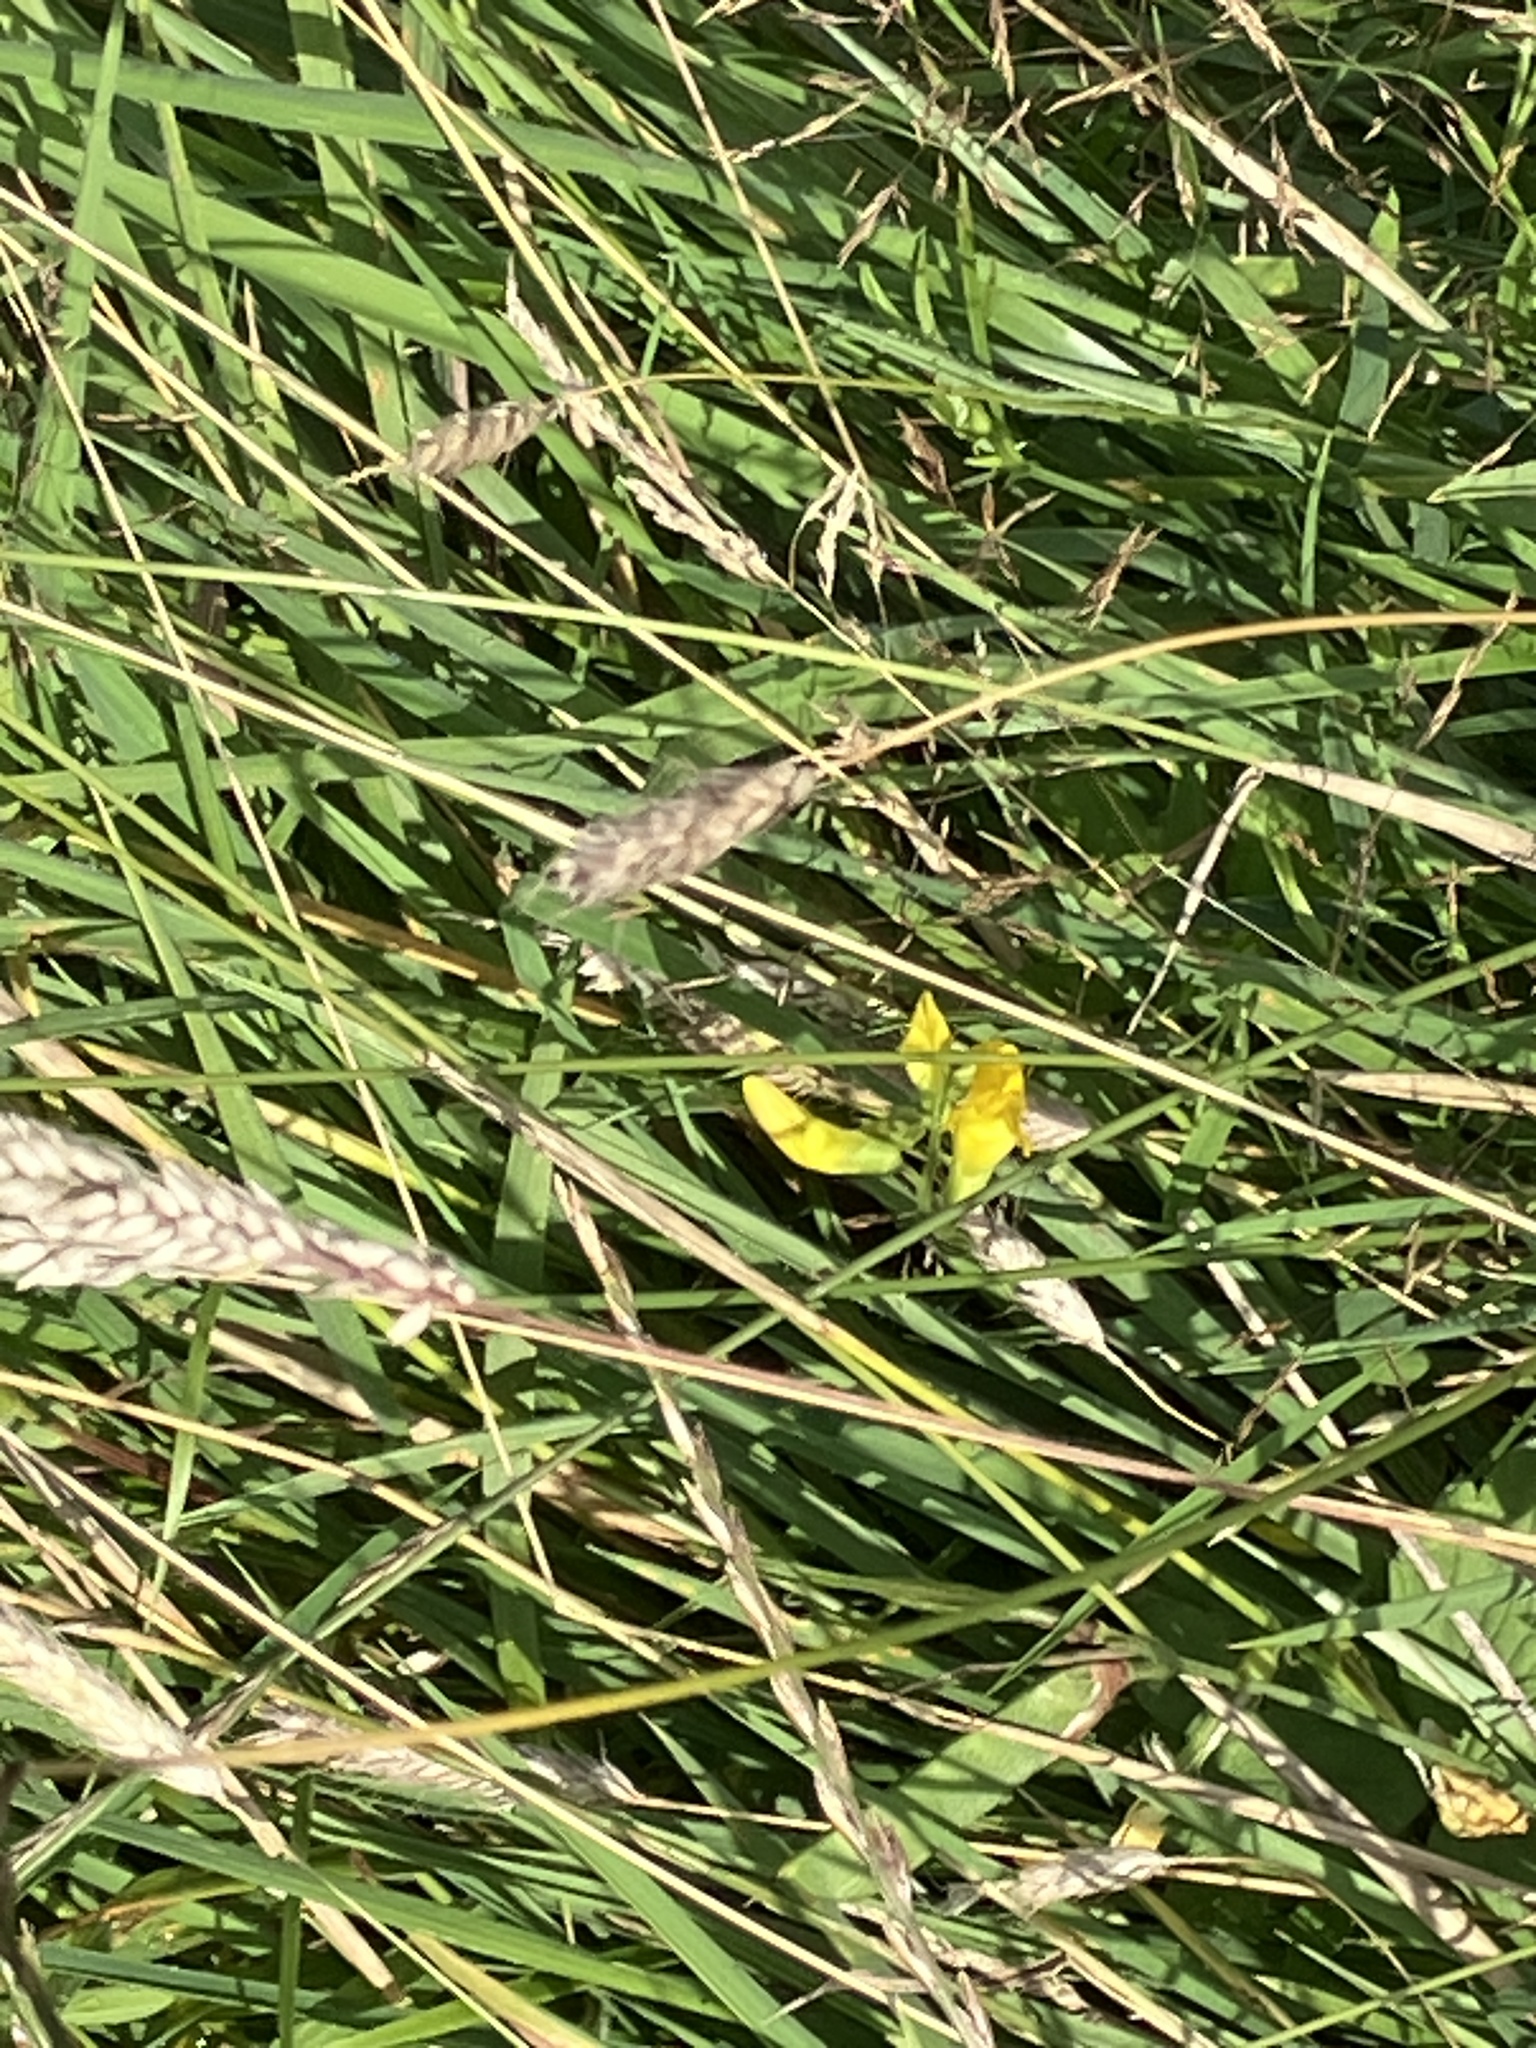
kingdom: Plantae
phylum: Tracheophyta
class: Magnoliopsida
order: Fabales
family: Fabaceae
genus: Lathyrus
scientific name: Lathyrus pratensis
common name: Meadow vetchling
